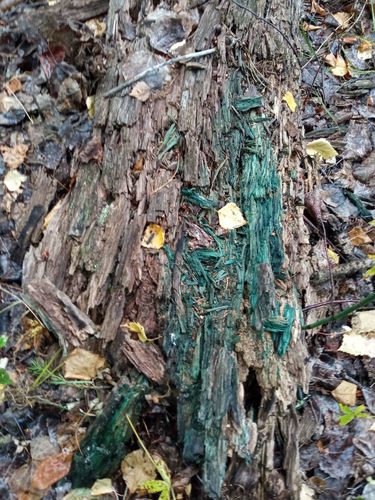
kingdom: Fungi
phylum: Ascomycota
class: Leotiomycetes
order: Helotiales
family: Chlorociboriaceae
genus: Chlorociboria
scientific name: Chlorociboria
